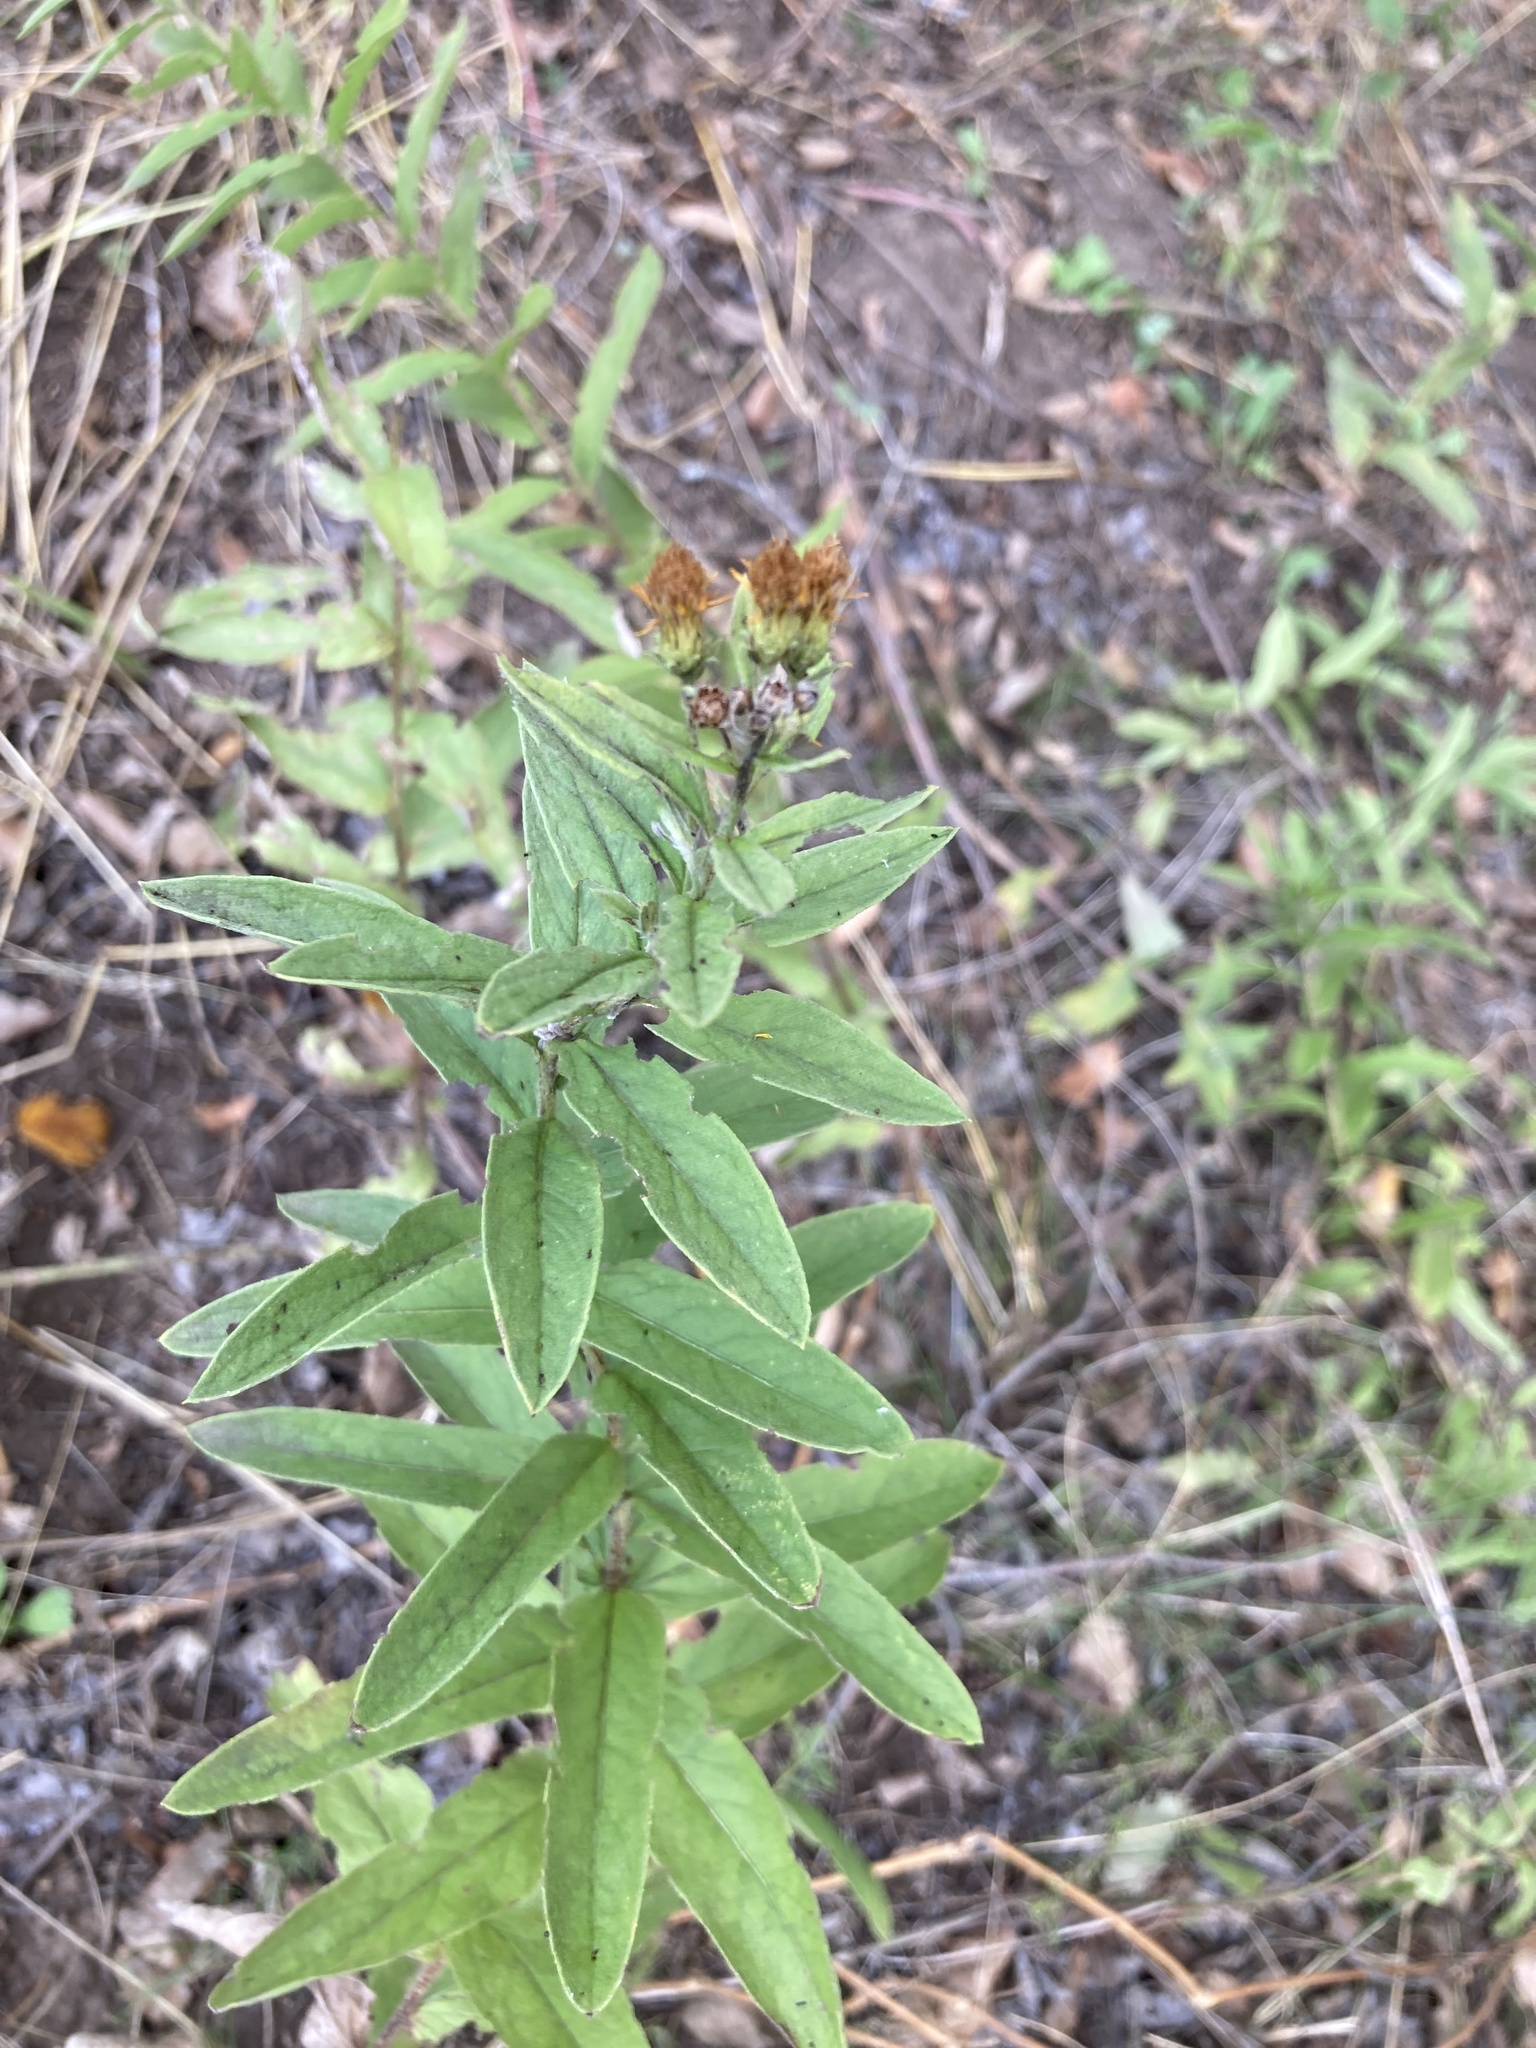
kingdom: Plantae
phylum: Tracheophyta
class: Magnoliopsida
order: Asterales
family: Asteraceae
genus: Pentanema
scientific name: Pentanema germanicum
